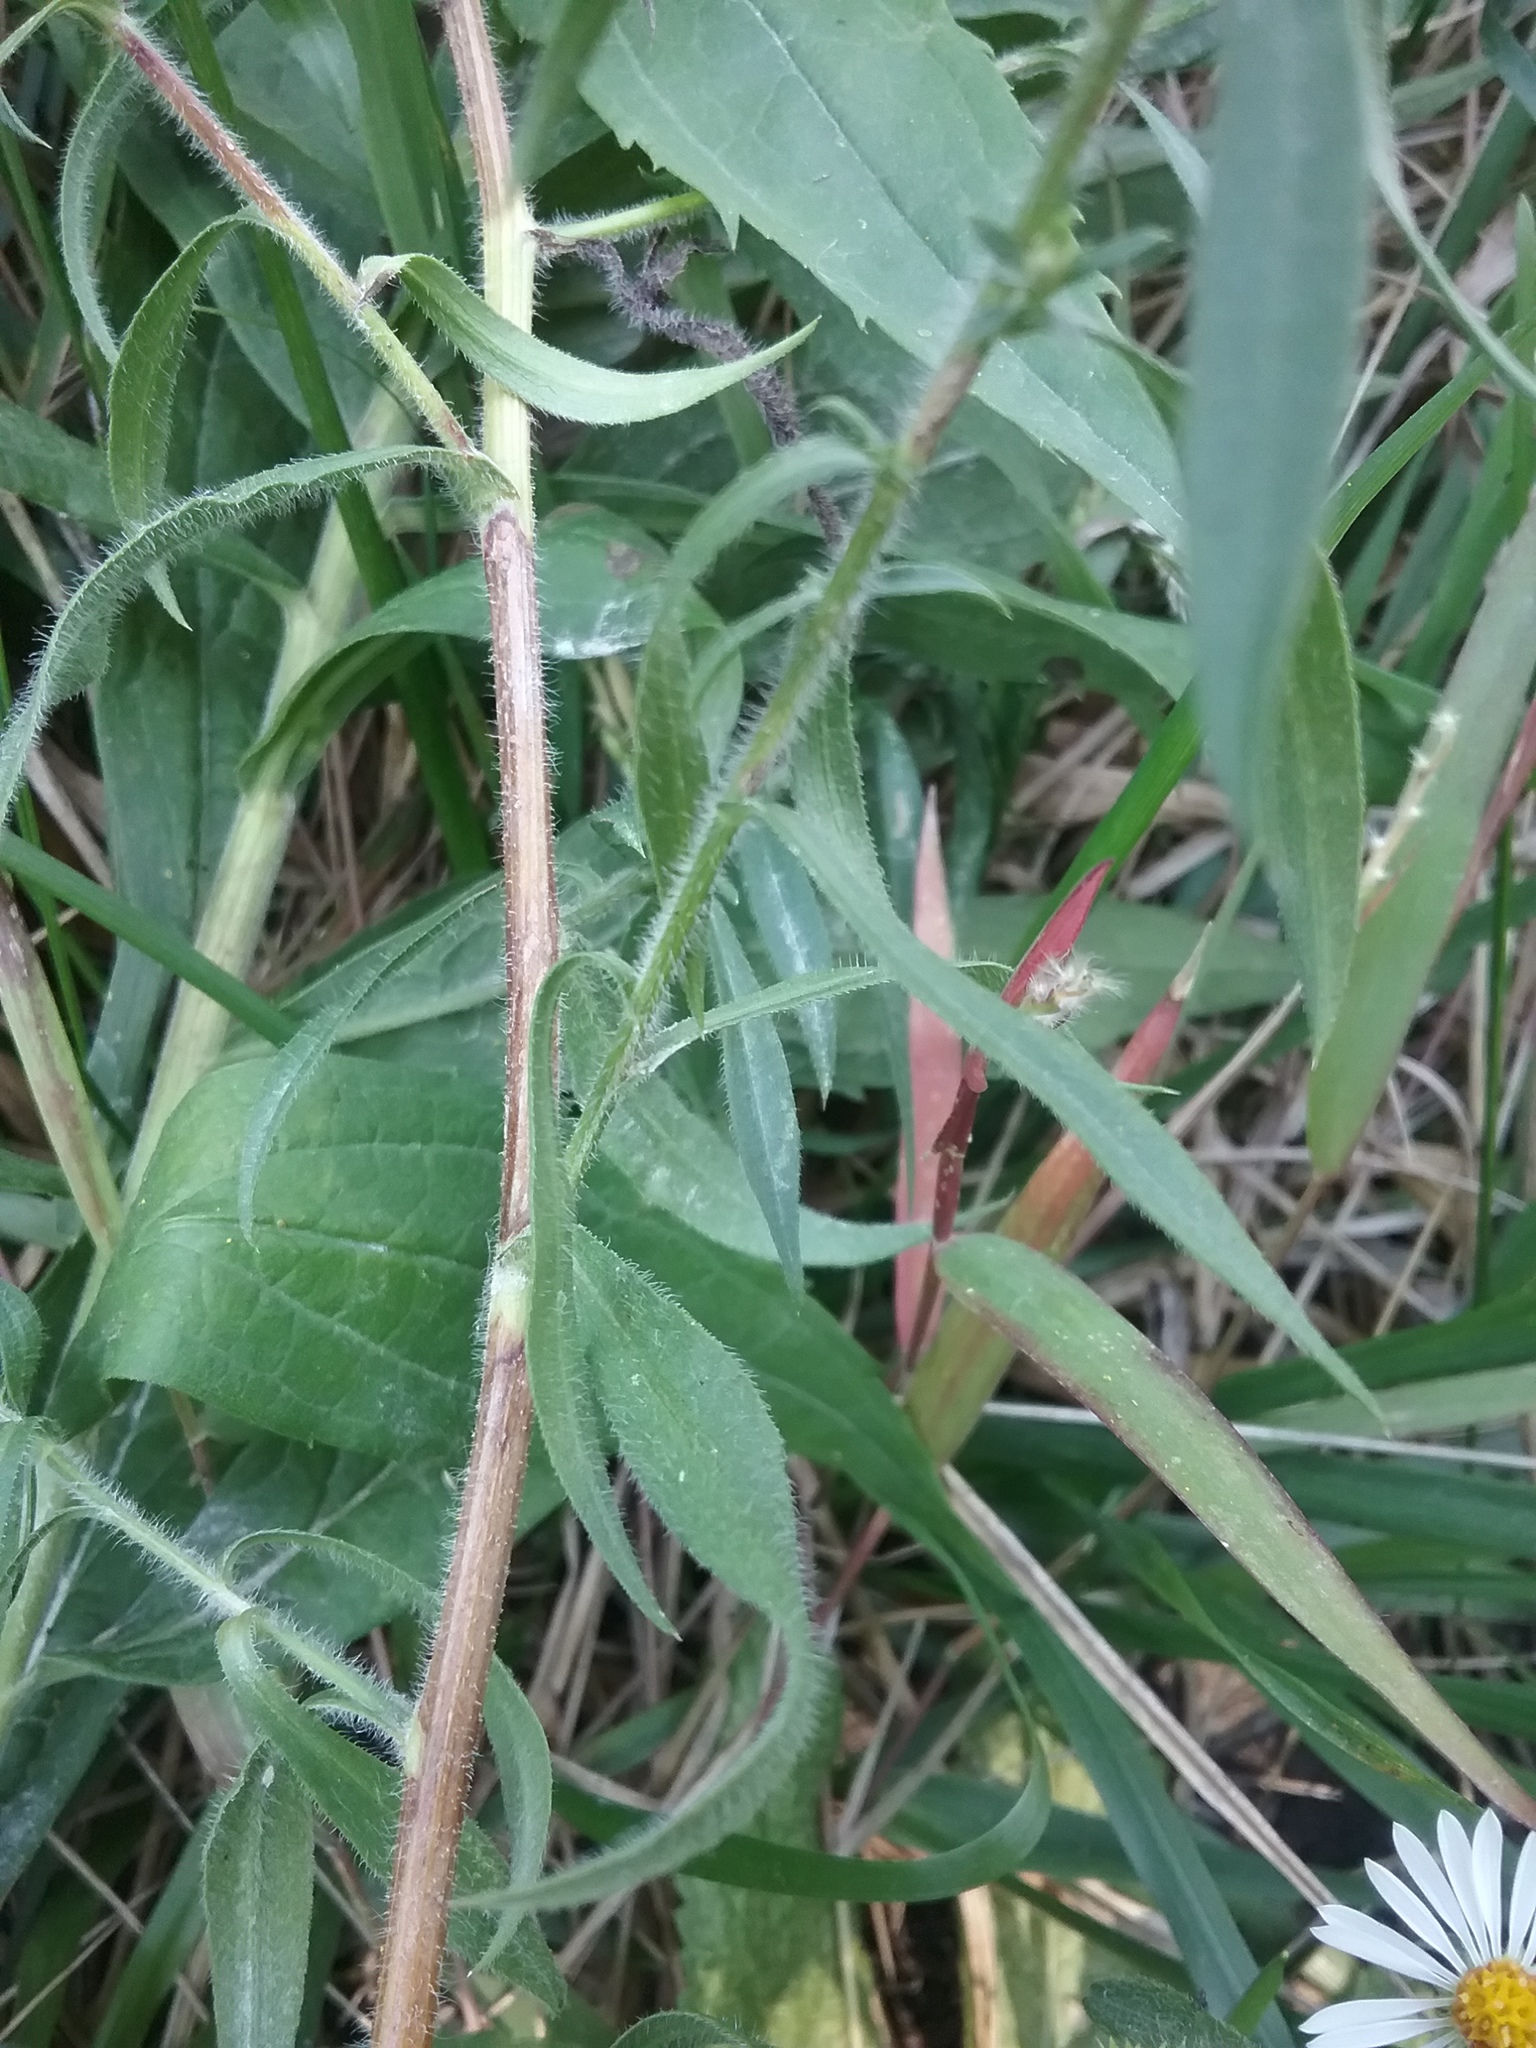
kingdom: Plantae
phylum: Tracheophyta
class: Magnoliopsida
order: Asterales
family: Asteraceae
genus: Symphyotrichum
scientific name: Symphyotrichum pilosum
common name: Awl aster
